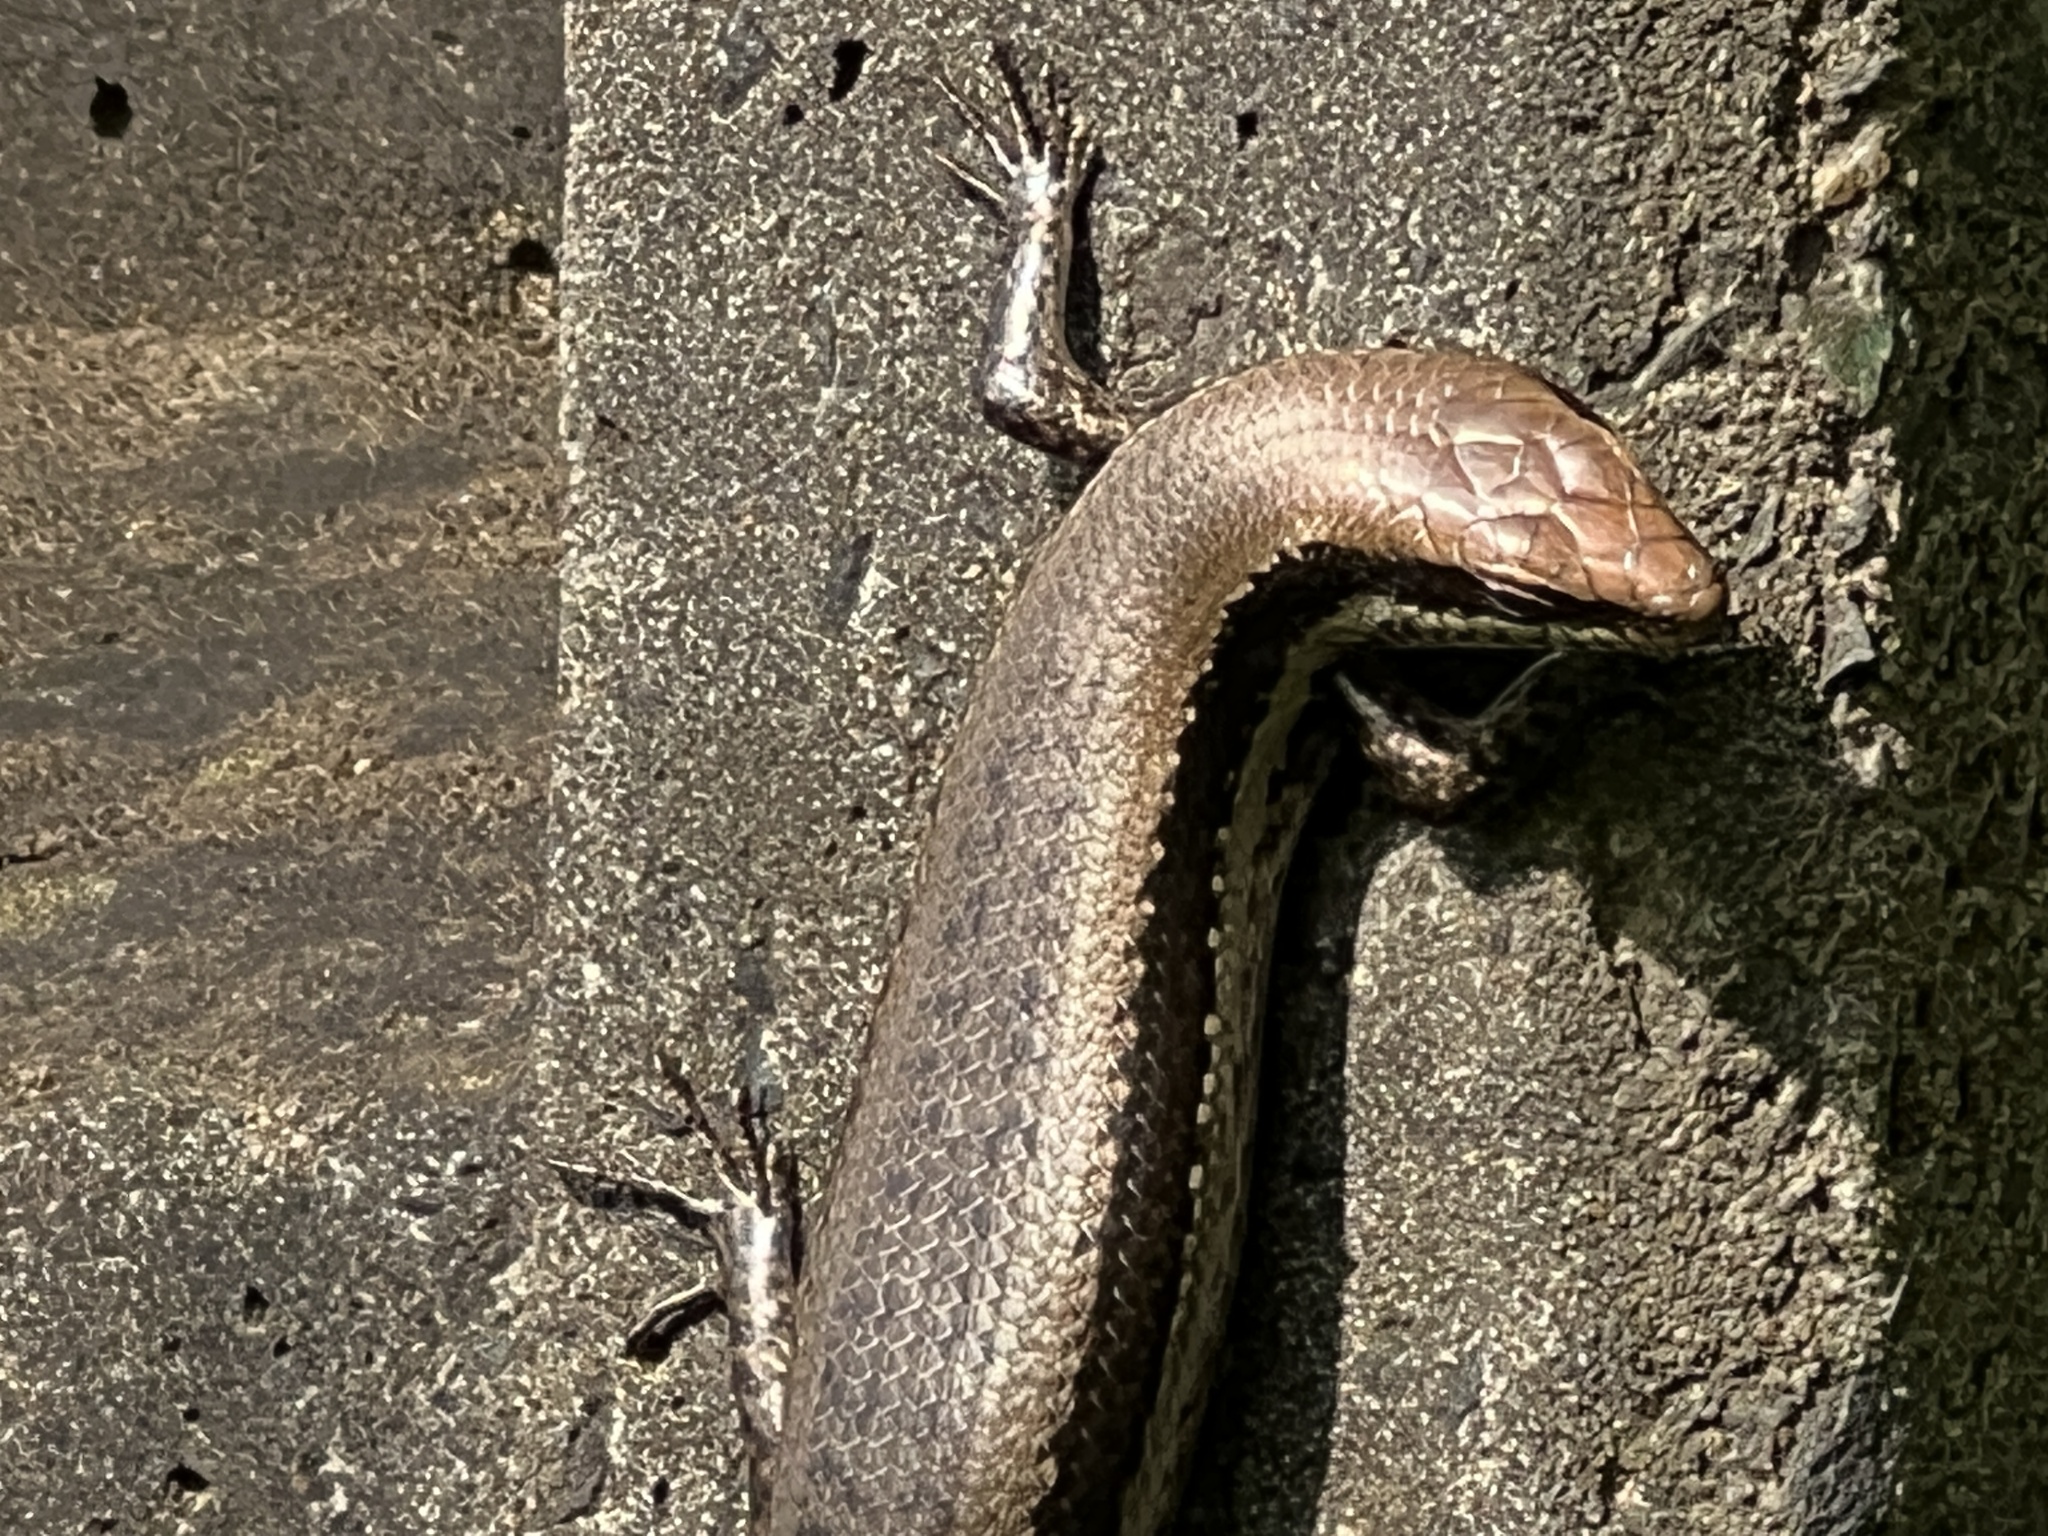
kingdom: Animalia
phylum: Chordata
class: Squamata
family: Scincidae
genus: Notomabuya
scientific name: Notomabuya frenata
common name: Cope's mabuya
